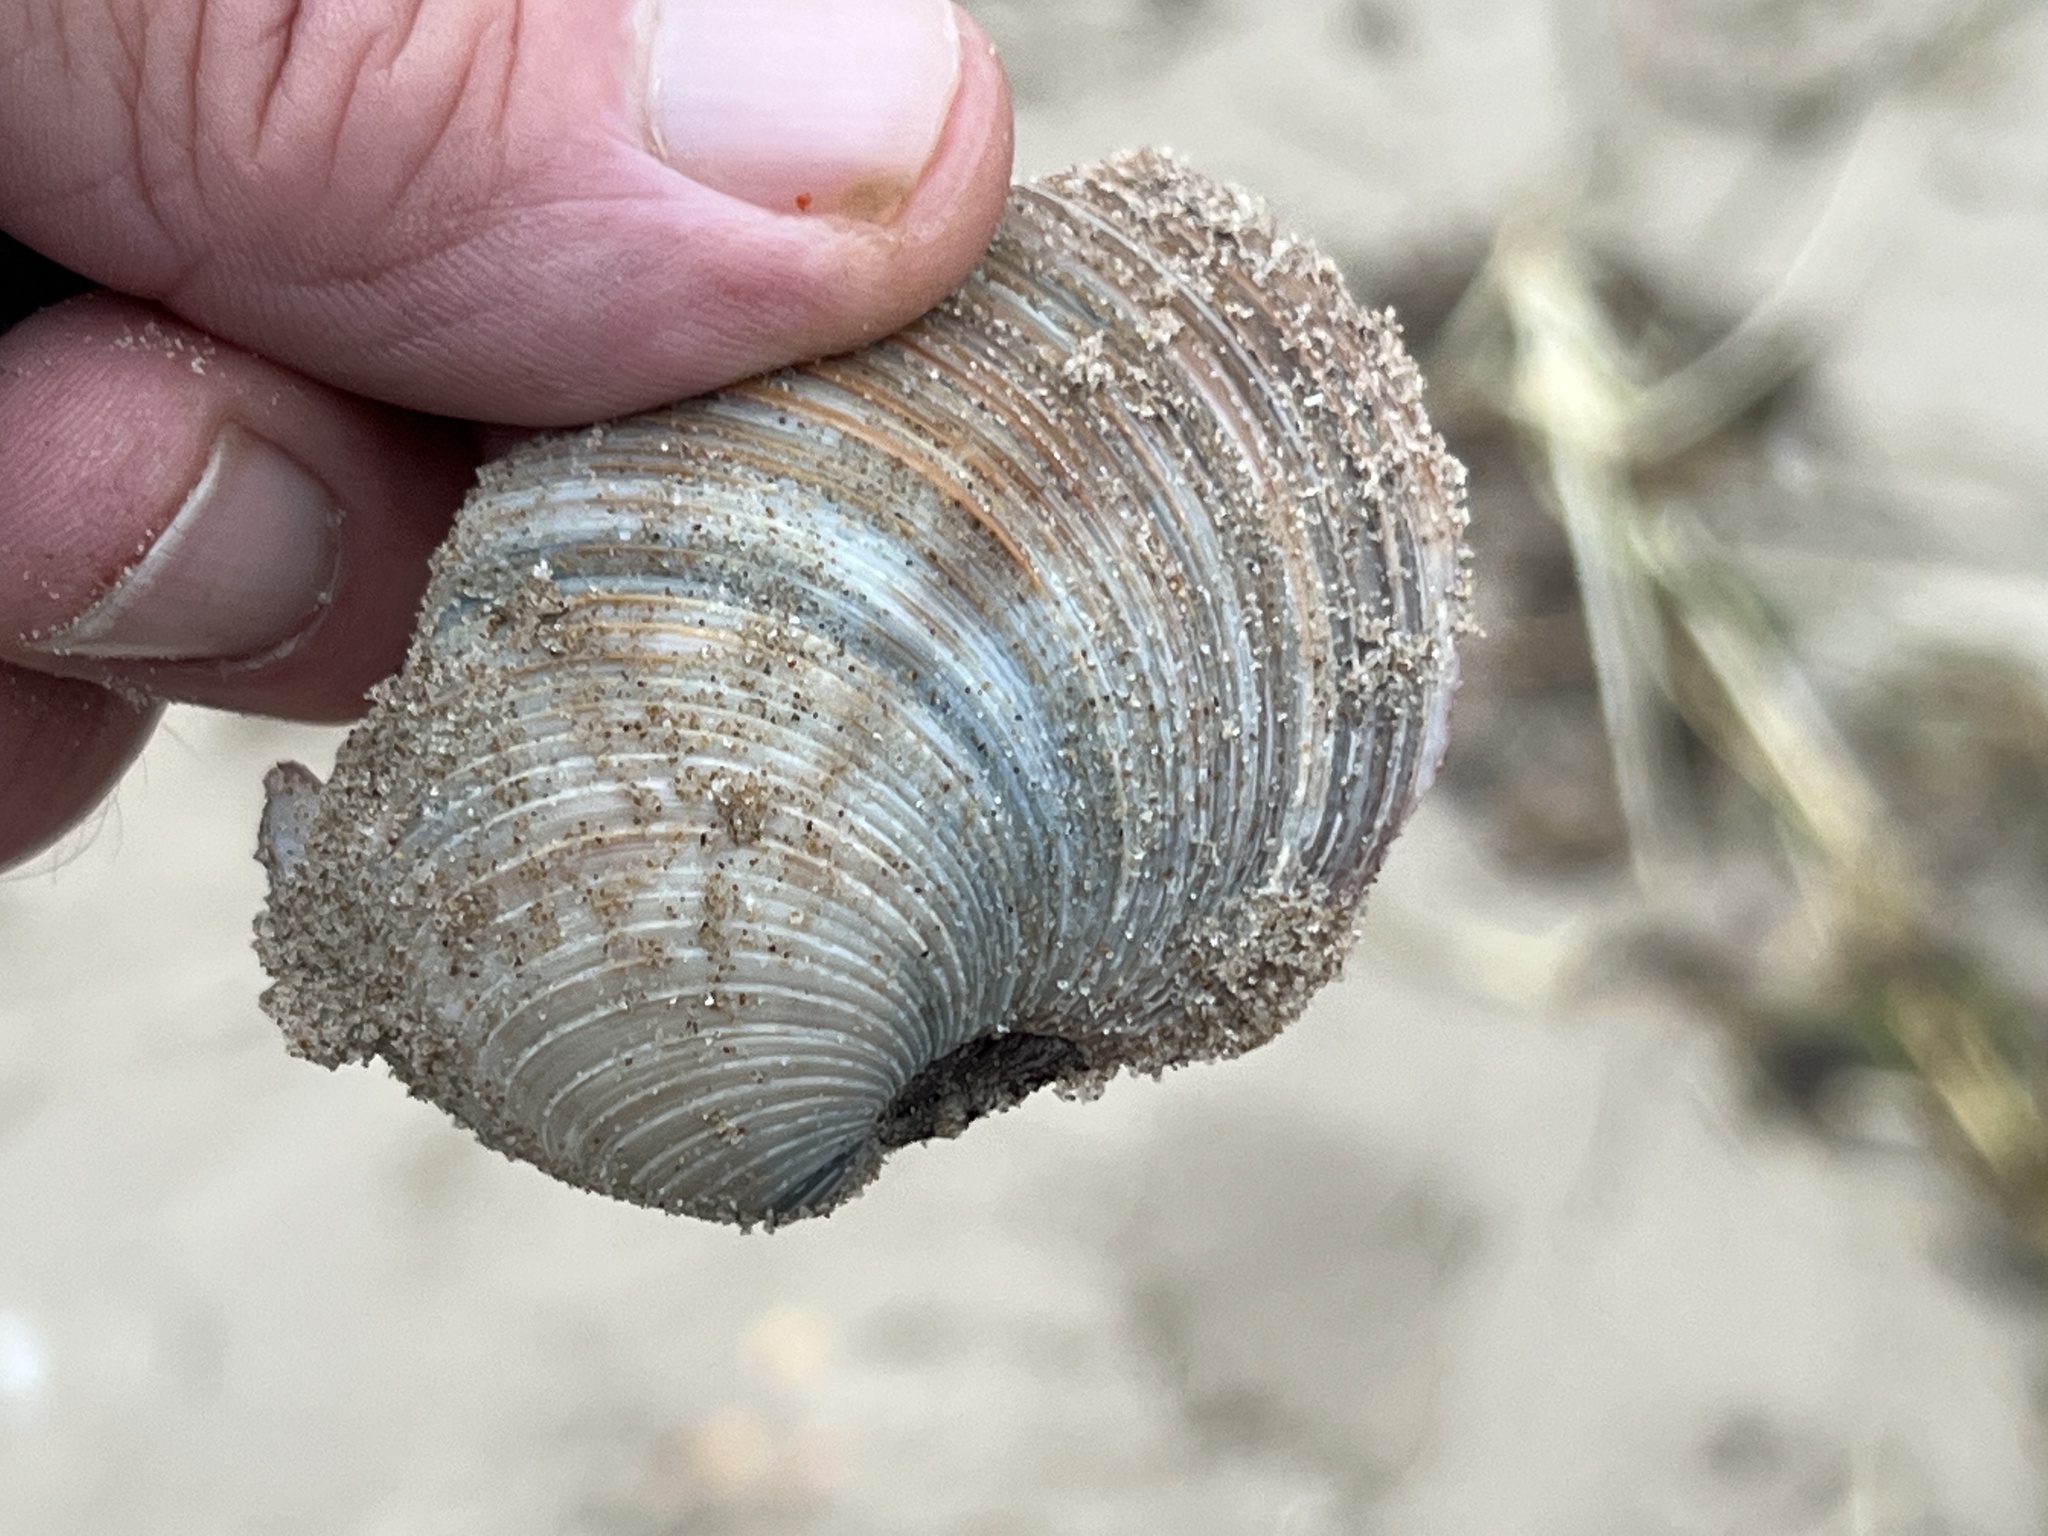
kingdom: Animalia
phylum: Mollusca
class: Bivalvia
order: Venerida
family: Veneridae
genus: Mercenaria
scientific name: Mercenaria campechiensis
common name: Südliche quahog-muschel
